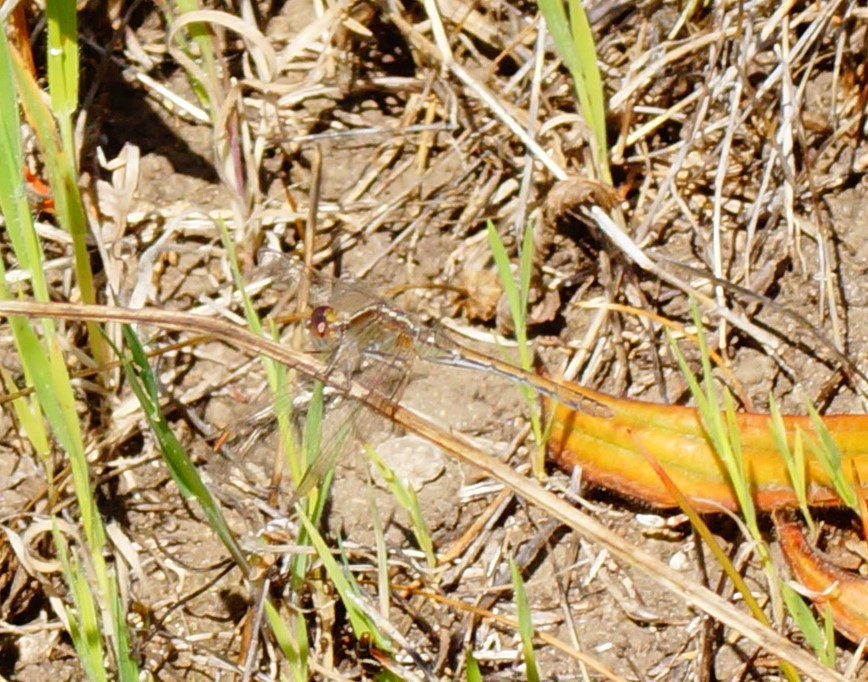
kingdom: Animalia
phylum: Arthropoda
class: Insecta
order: Odonata
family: Libellulidae
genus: Diplacodes
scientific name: Diplacodes bipunctata
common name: Red percher dragonfly
